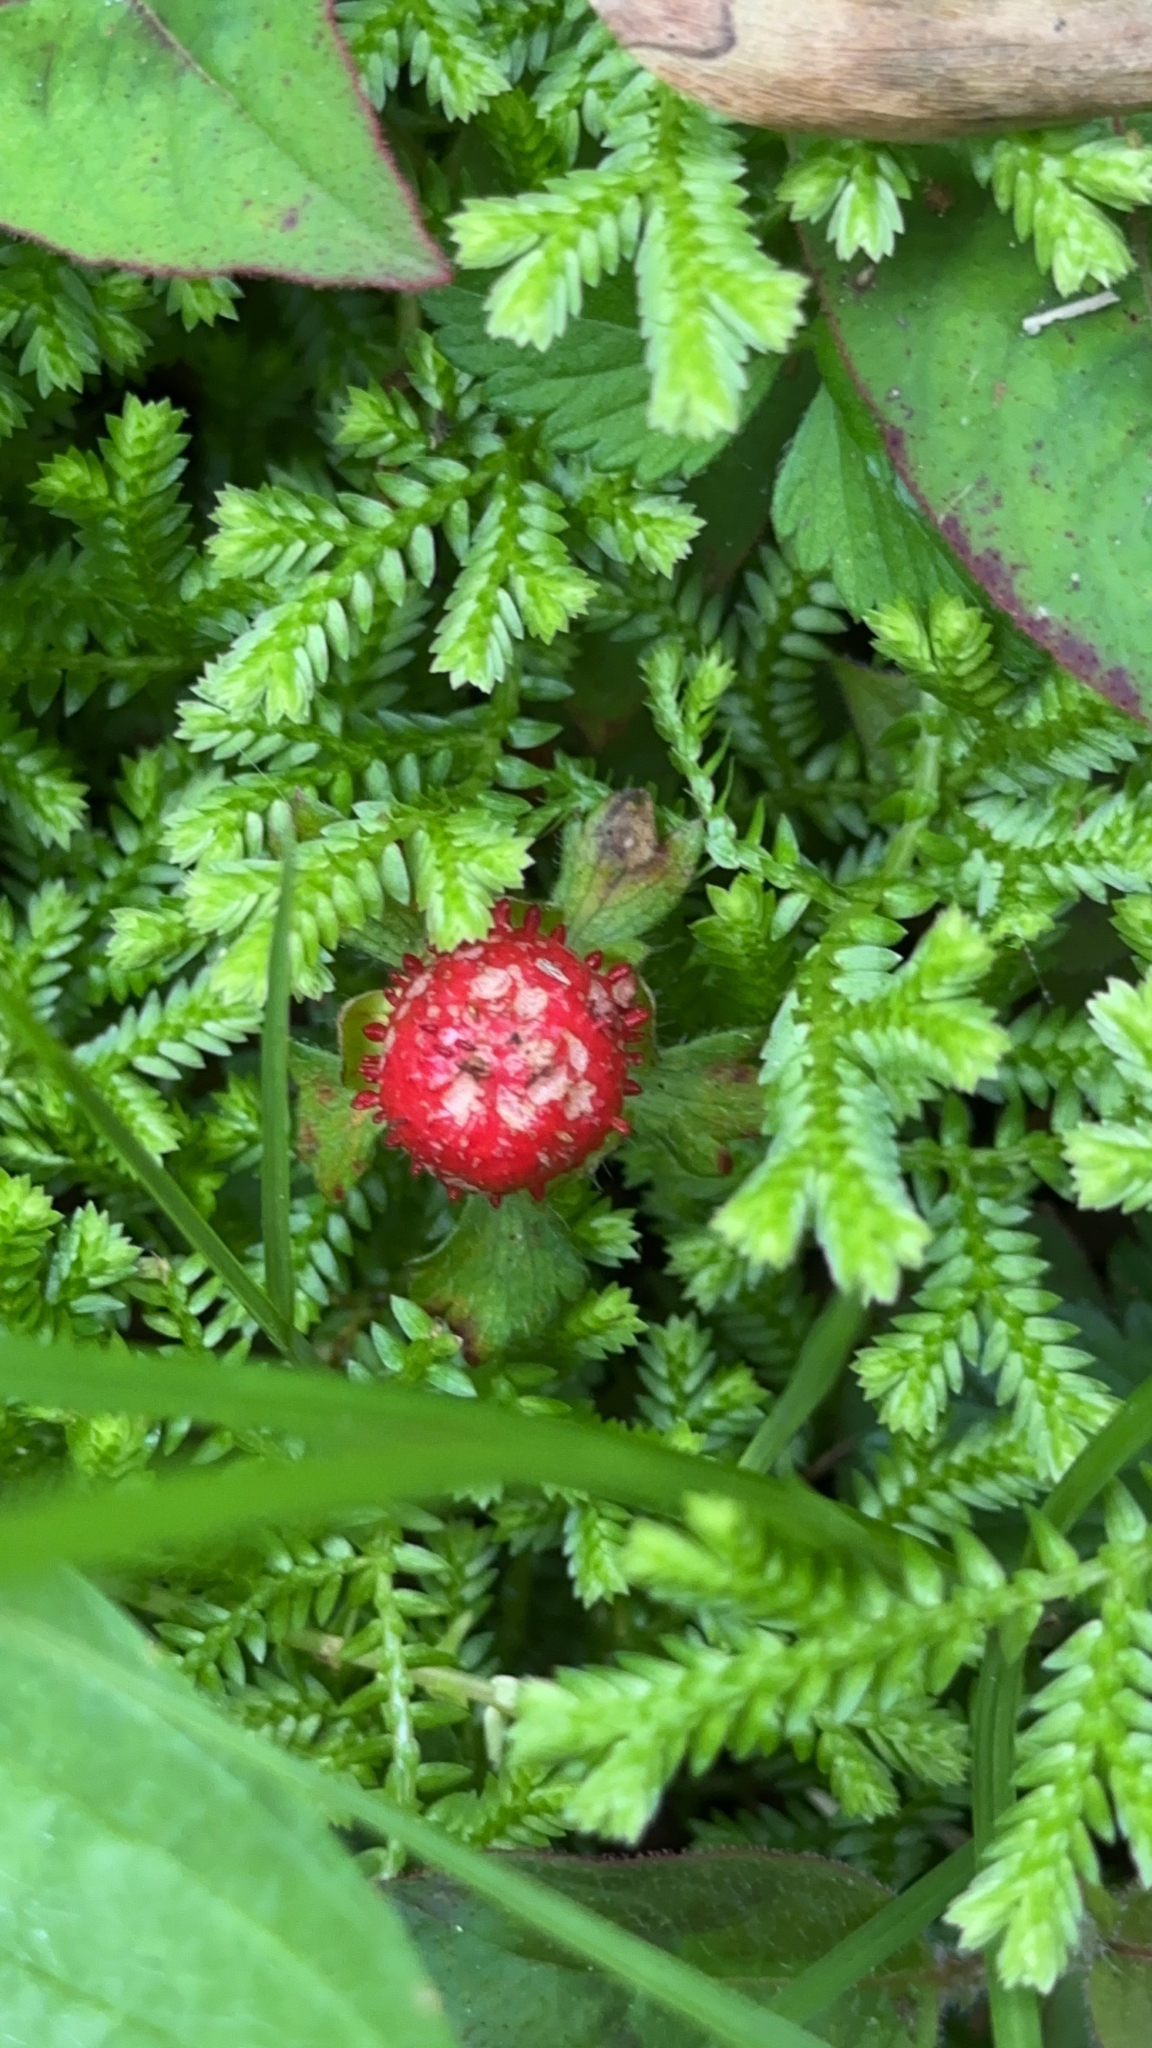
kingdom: Plantae
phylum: Tracheophyta
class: Magnoliopsida
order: Rosales
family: Rosaceae
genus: Potentilla
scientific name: Potentilla indica
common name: Yellow-flowered strawberry
